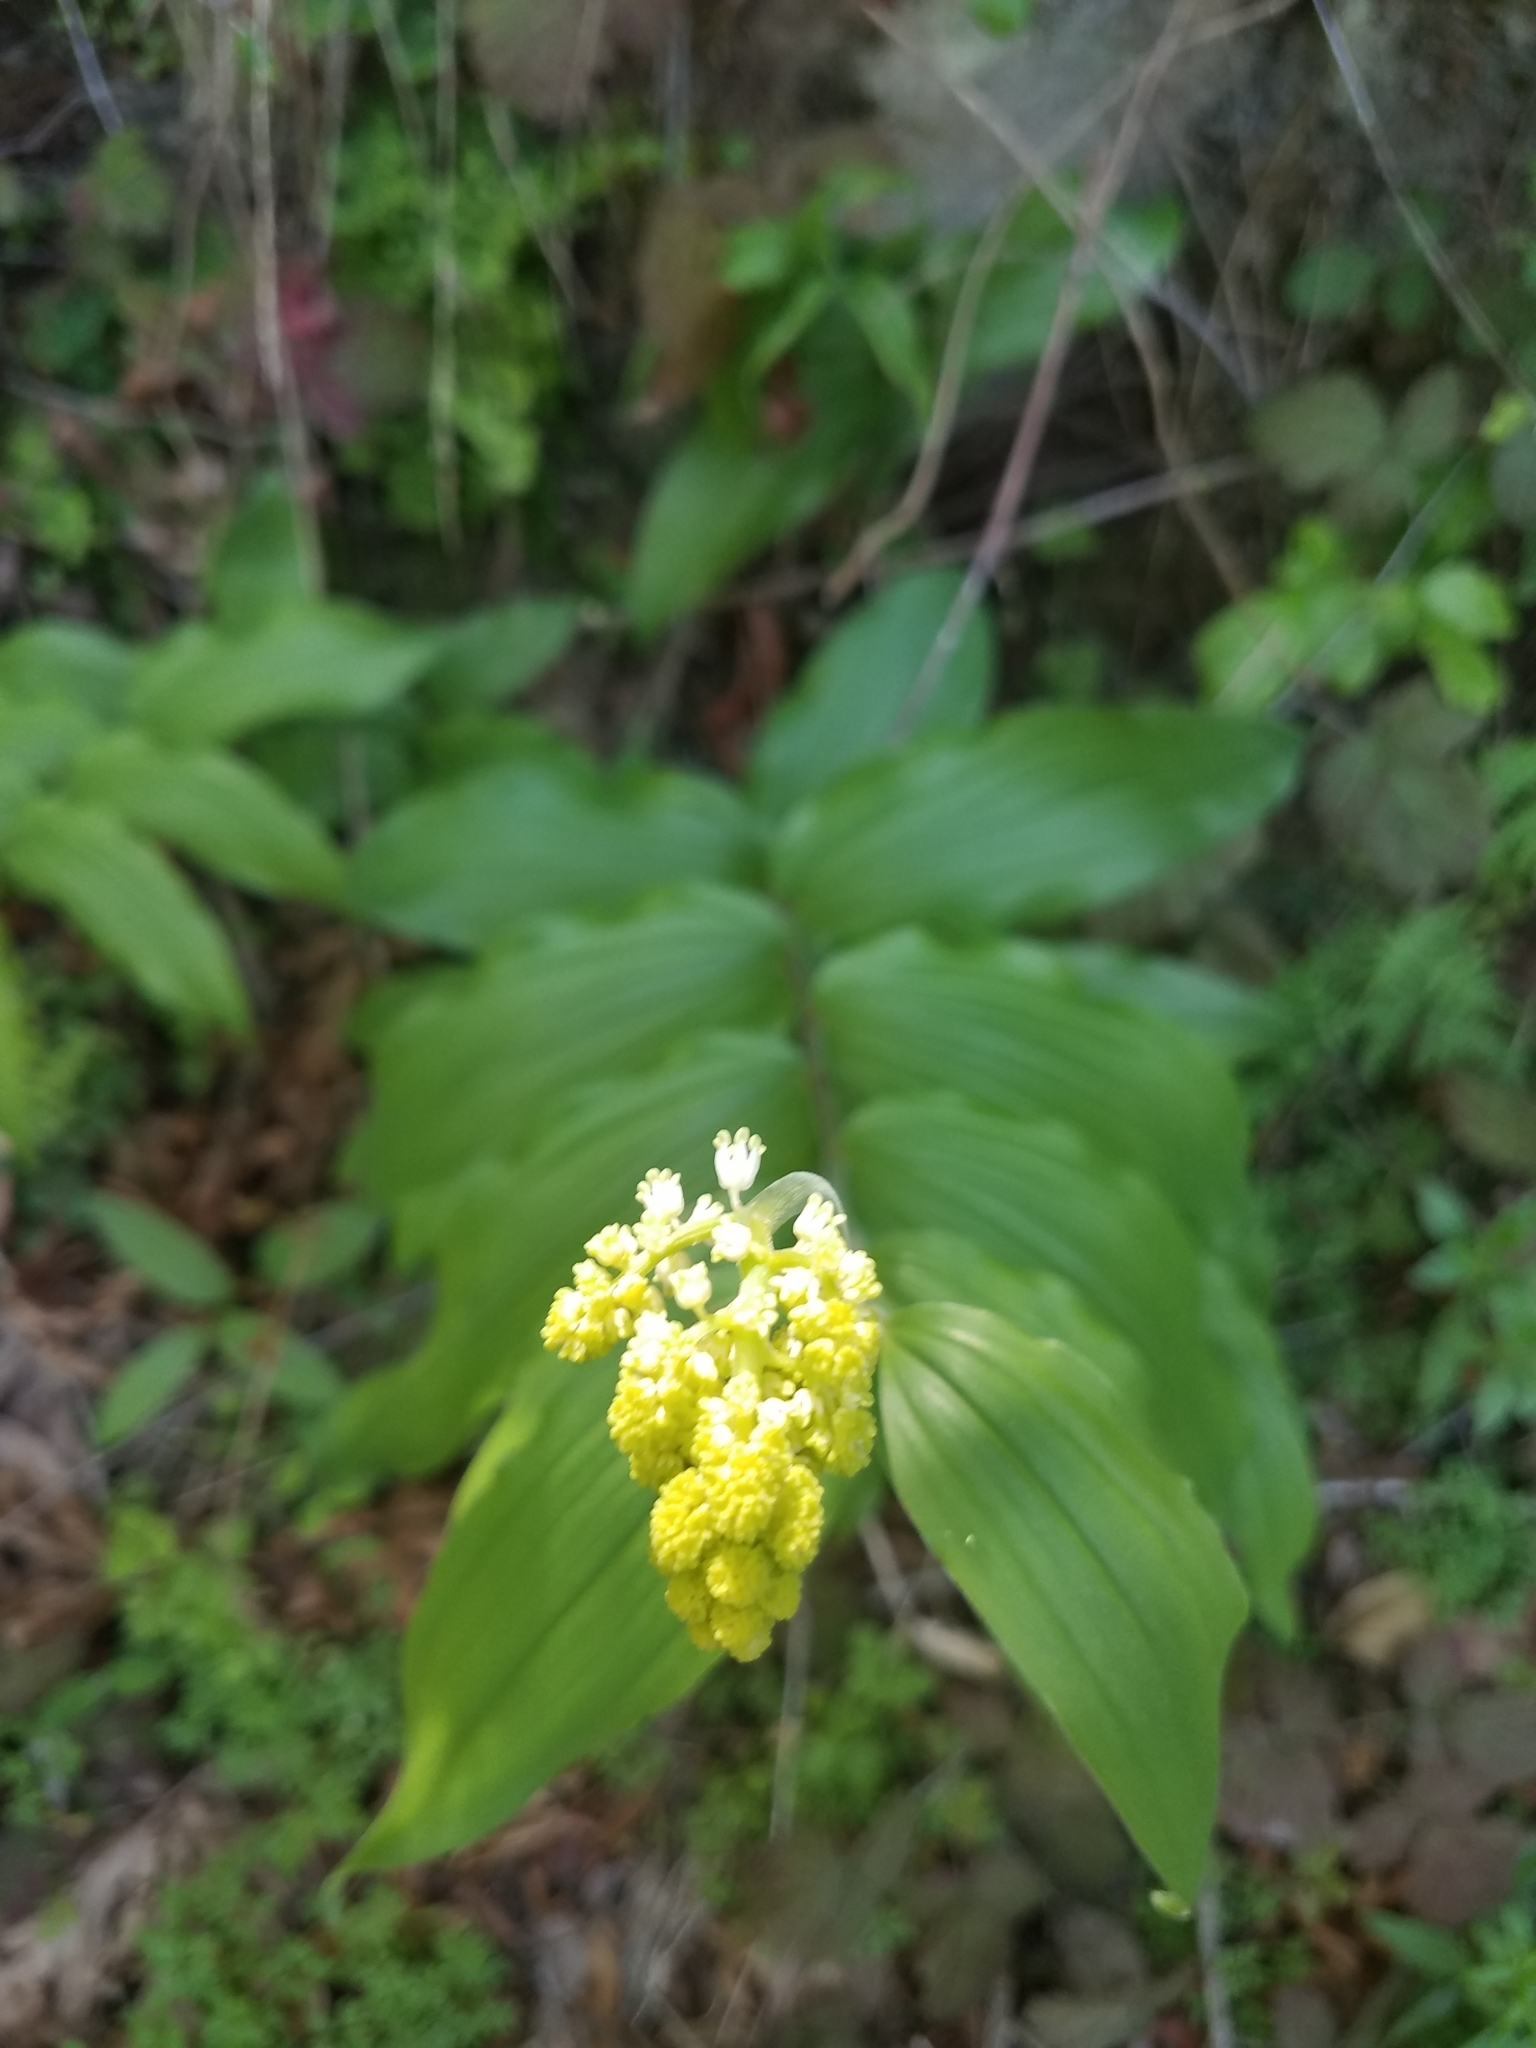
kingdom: Plantae
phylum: Tracheophyta
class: Liliopsida
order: Asparagales
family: Asparagaceae
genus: Maianthemum
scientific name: Maianthemum racemosum
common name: False spikenard
